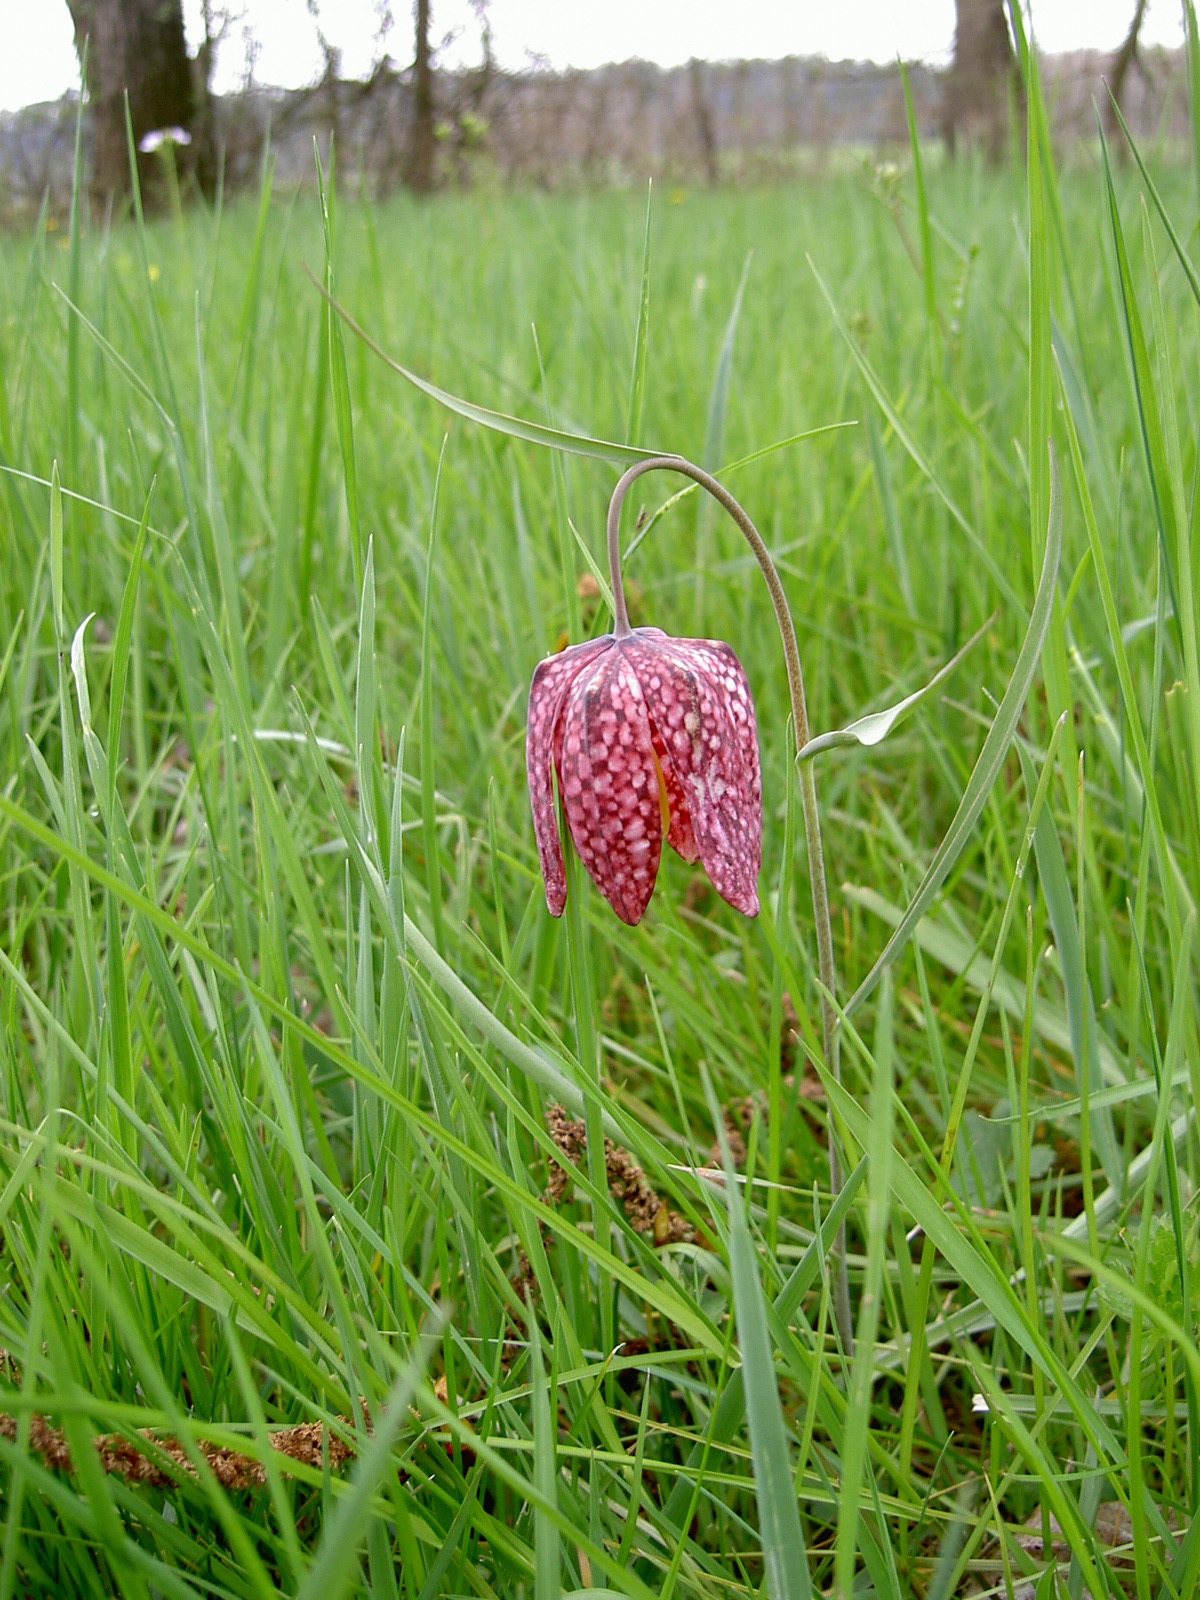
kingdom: Plantae
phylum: Tracheophyta
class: Liliopsida
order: Liliales
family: Liliaceae
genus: Fritillaria
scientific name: Fritillaria meleagris
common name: Fritillary
